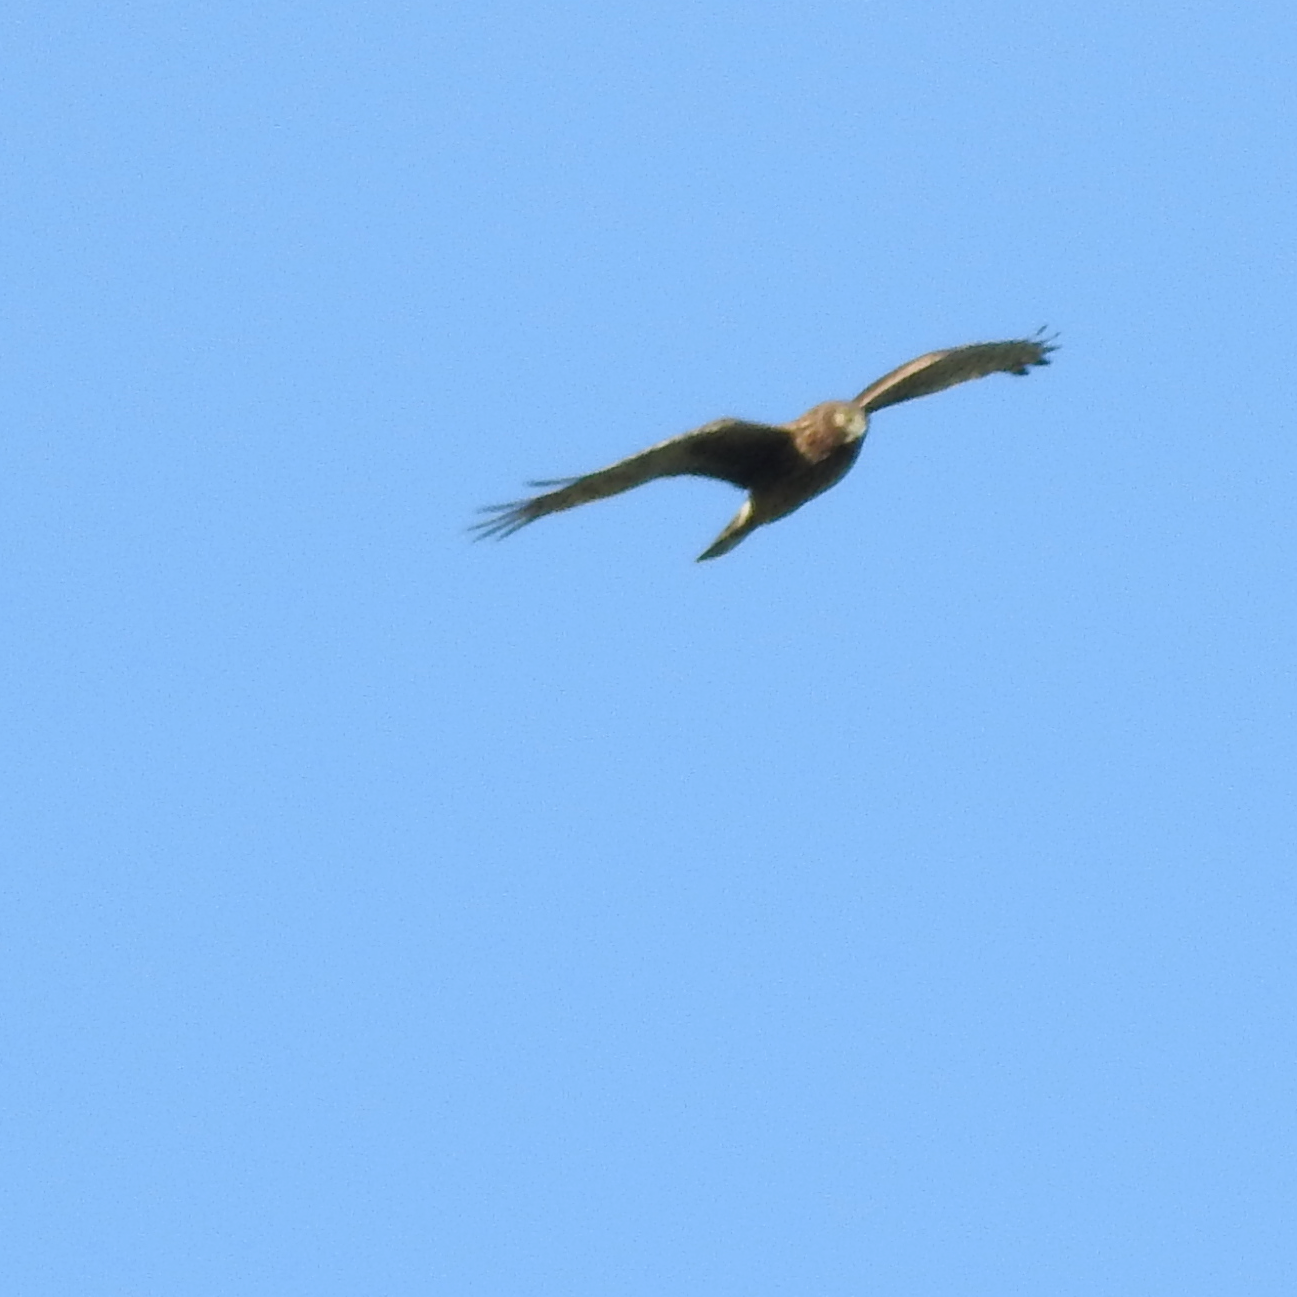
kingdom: Animalia
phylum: Chordata
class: Aves
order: Accipitriformes
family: Accipitridae
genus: Circus
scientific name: Circus cyaneus
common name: Hen harrier
